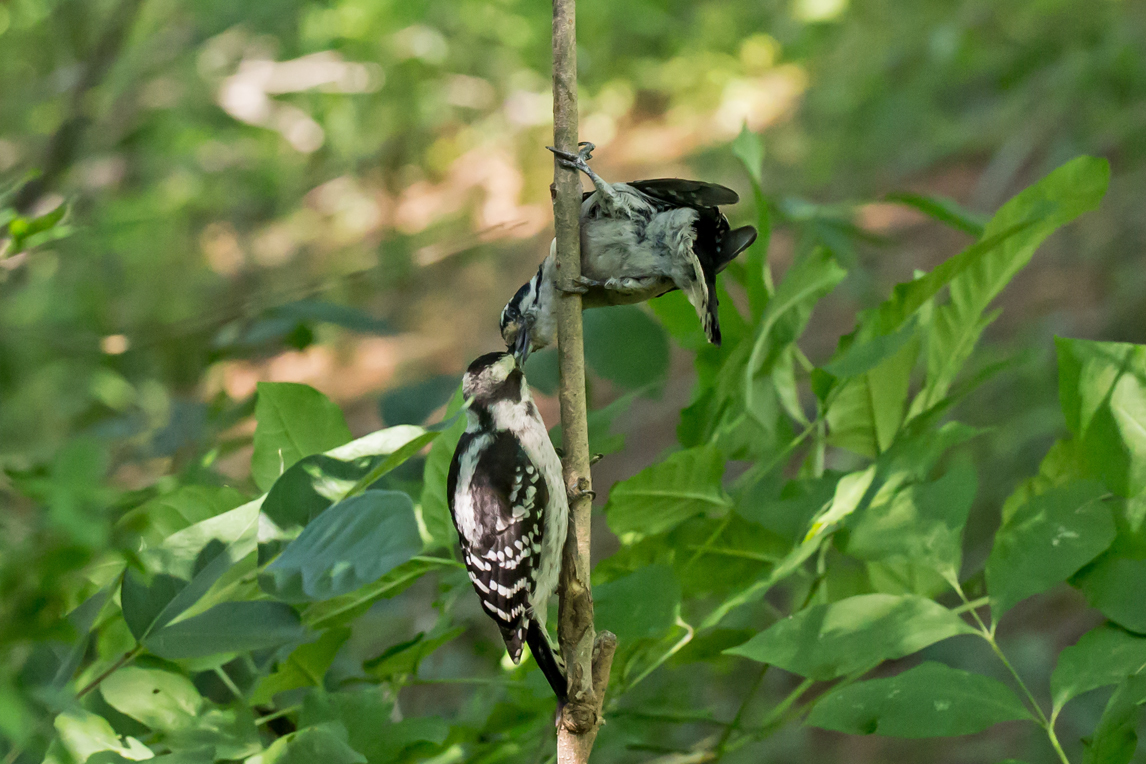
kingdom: Animalia
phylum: Chordata
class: Aves
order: Piciformes
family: Picidae
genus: Dryobates
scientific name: Dryobates pubescens
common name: Downy woodpecker
